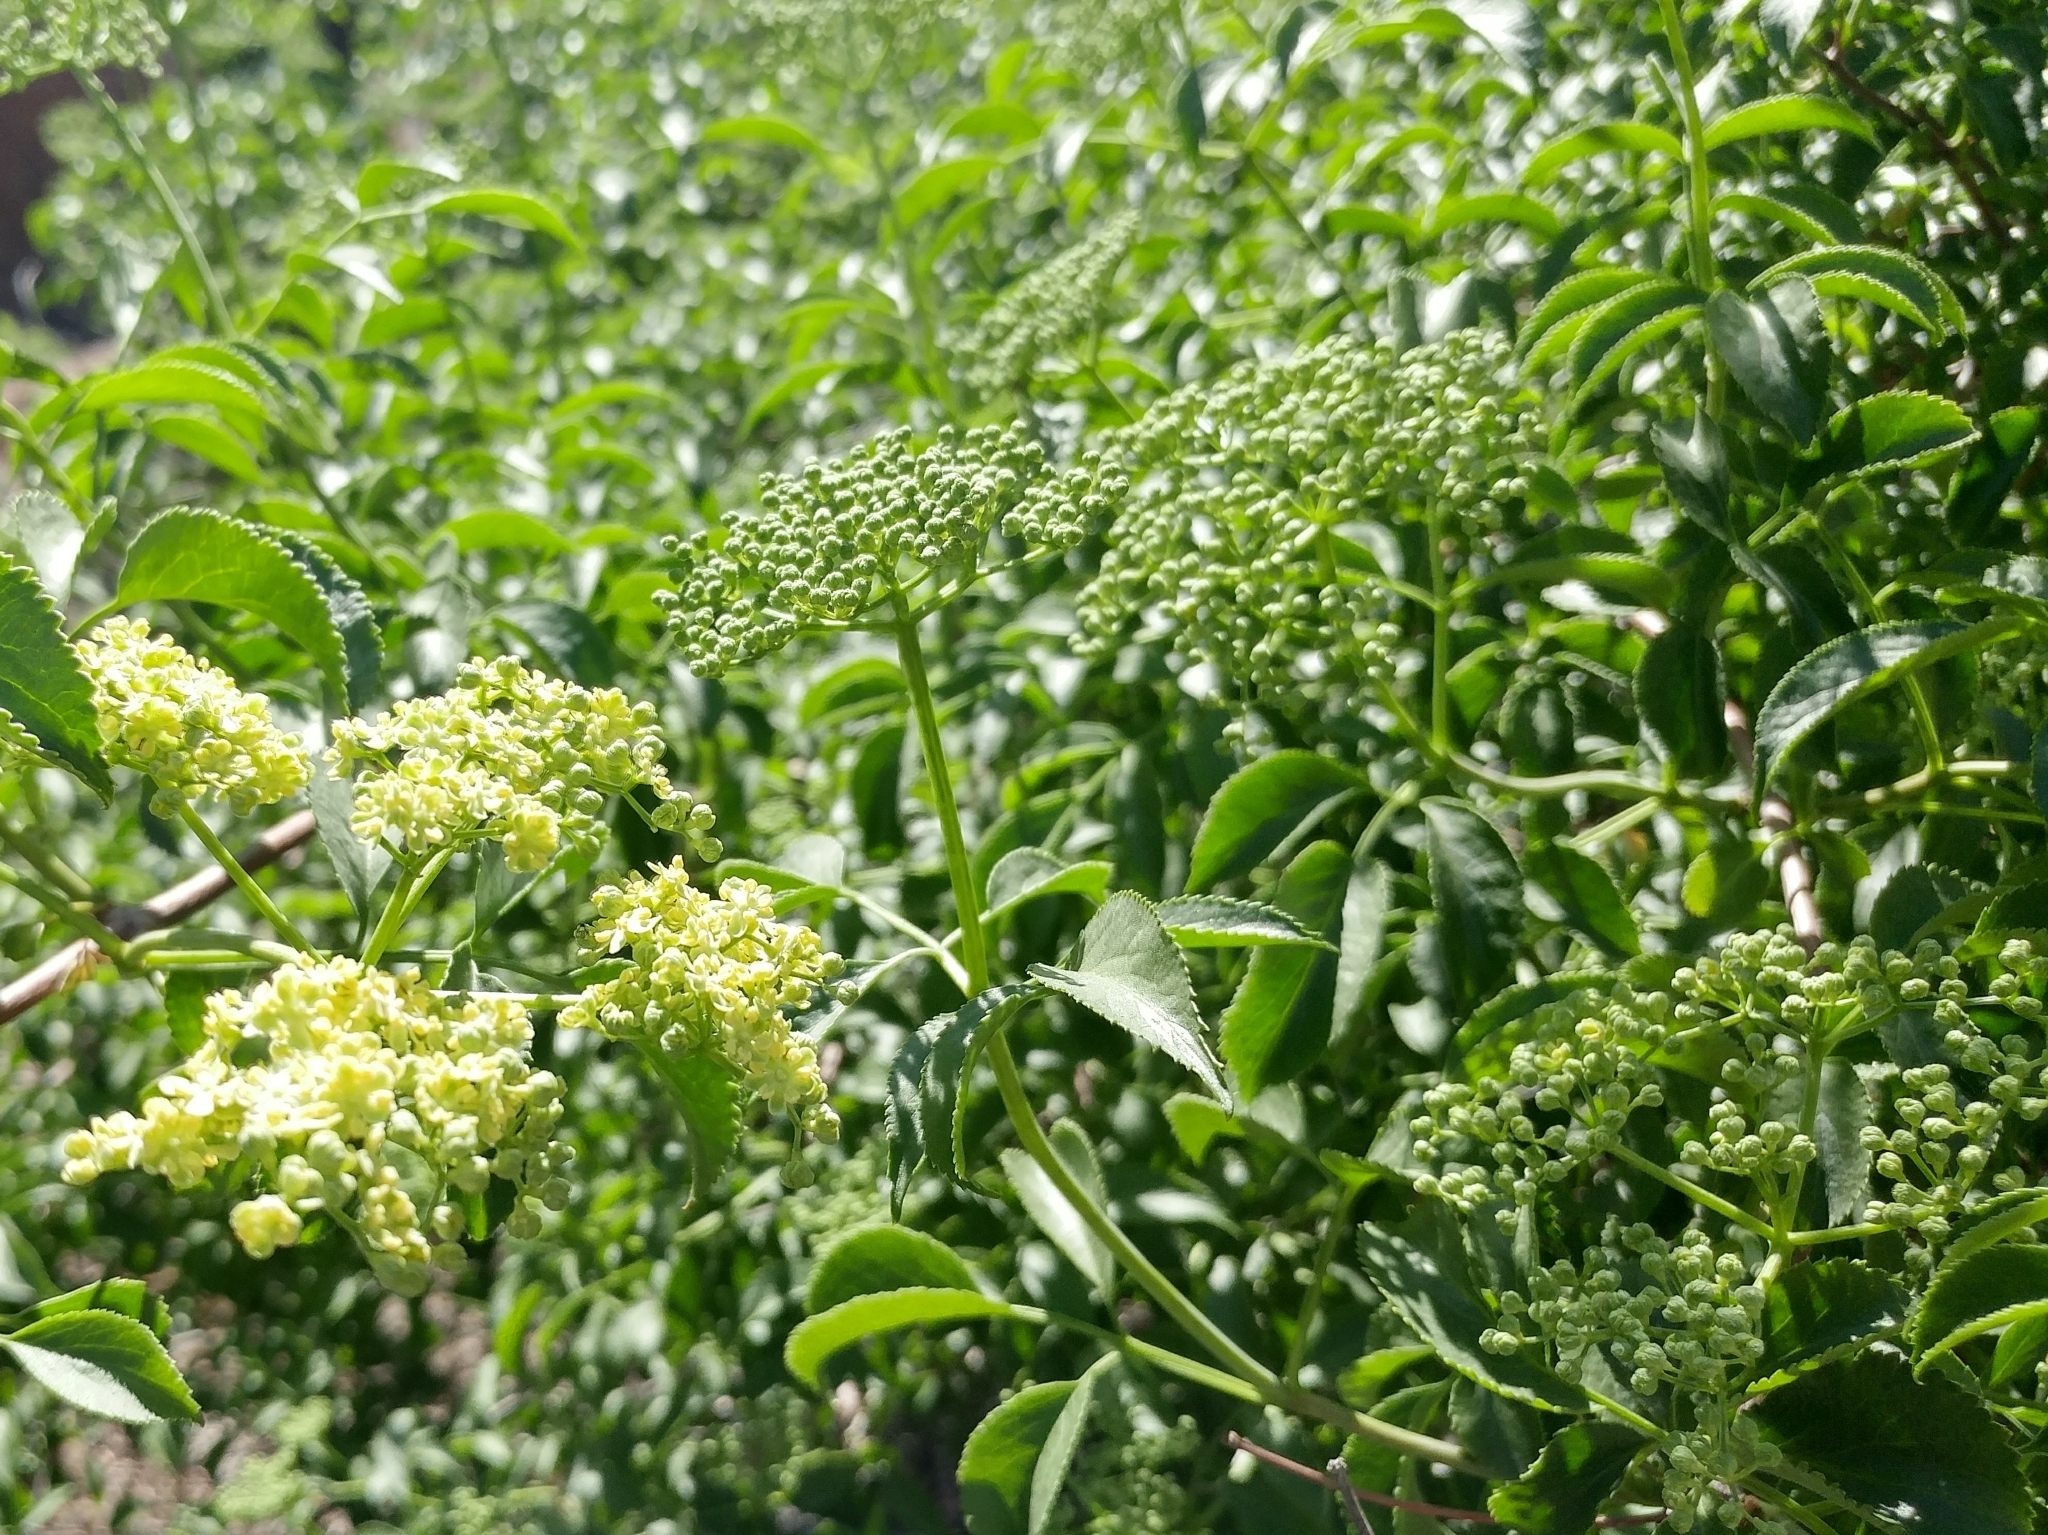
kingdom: Plantae
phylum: Tracheophyta
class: Magnoliopsida
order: Dipsacales
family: Viburnaceae
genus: Sambucus
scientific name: Sambucus cerulea
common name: Blue elder
